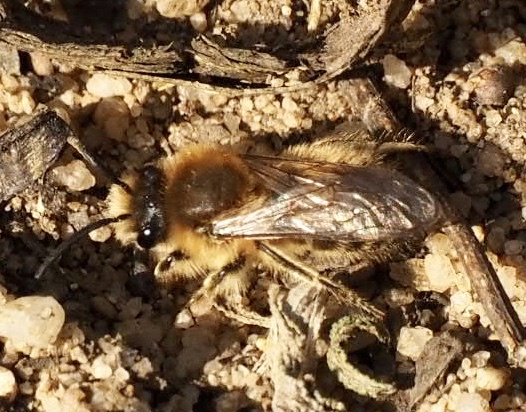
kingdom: Animalia
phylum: Arthropoda
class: Insecta
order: Hymenoptera
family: Colletidae
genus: Colletes
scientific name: Colletes cunicularius
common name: Early colletes
